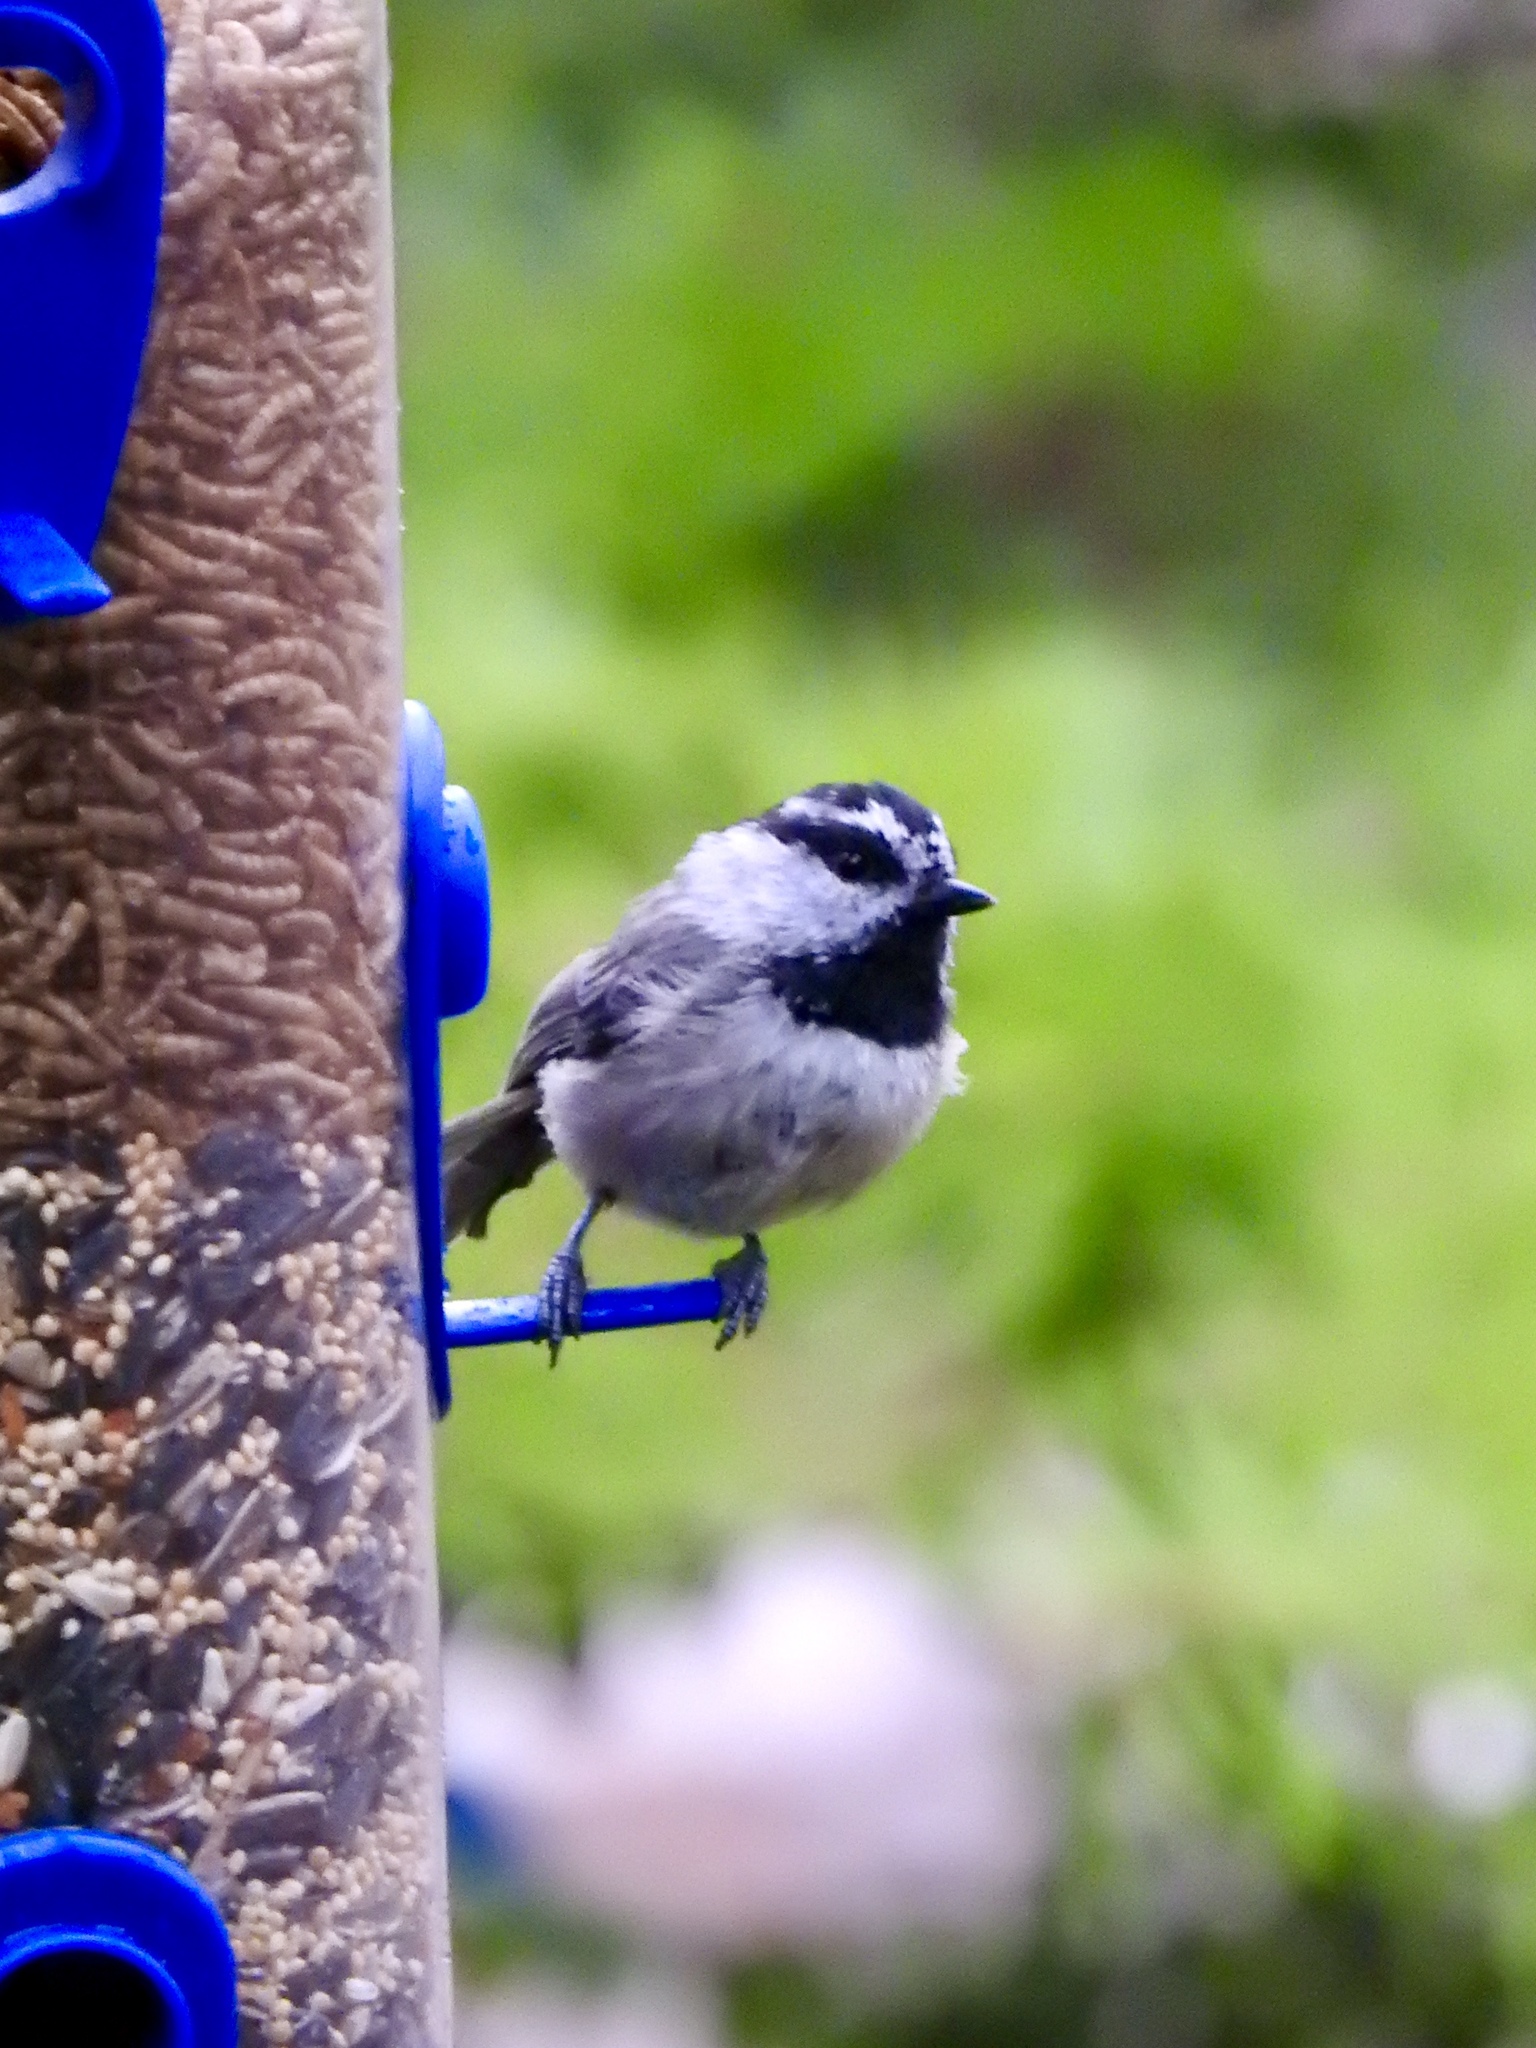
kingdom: Animalia
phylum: Chordata
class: Aves
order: Passeriformes
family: Paridae
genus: Poecile
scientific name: Poecile gambeli
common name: Mountain chickadee
